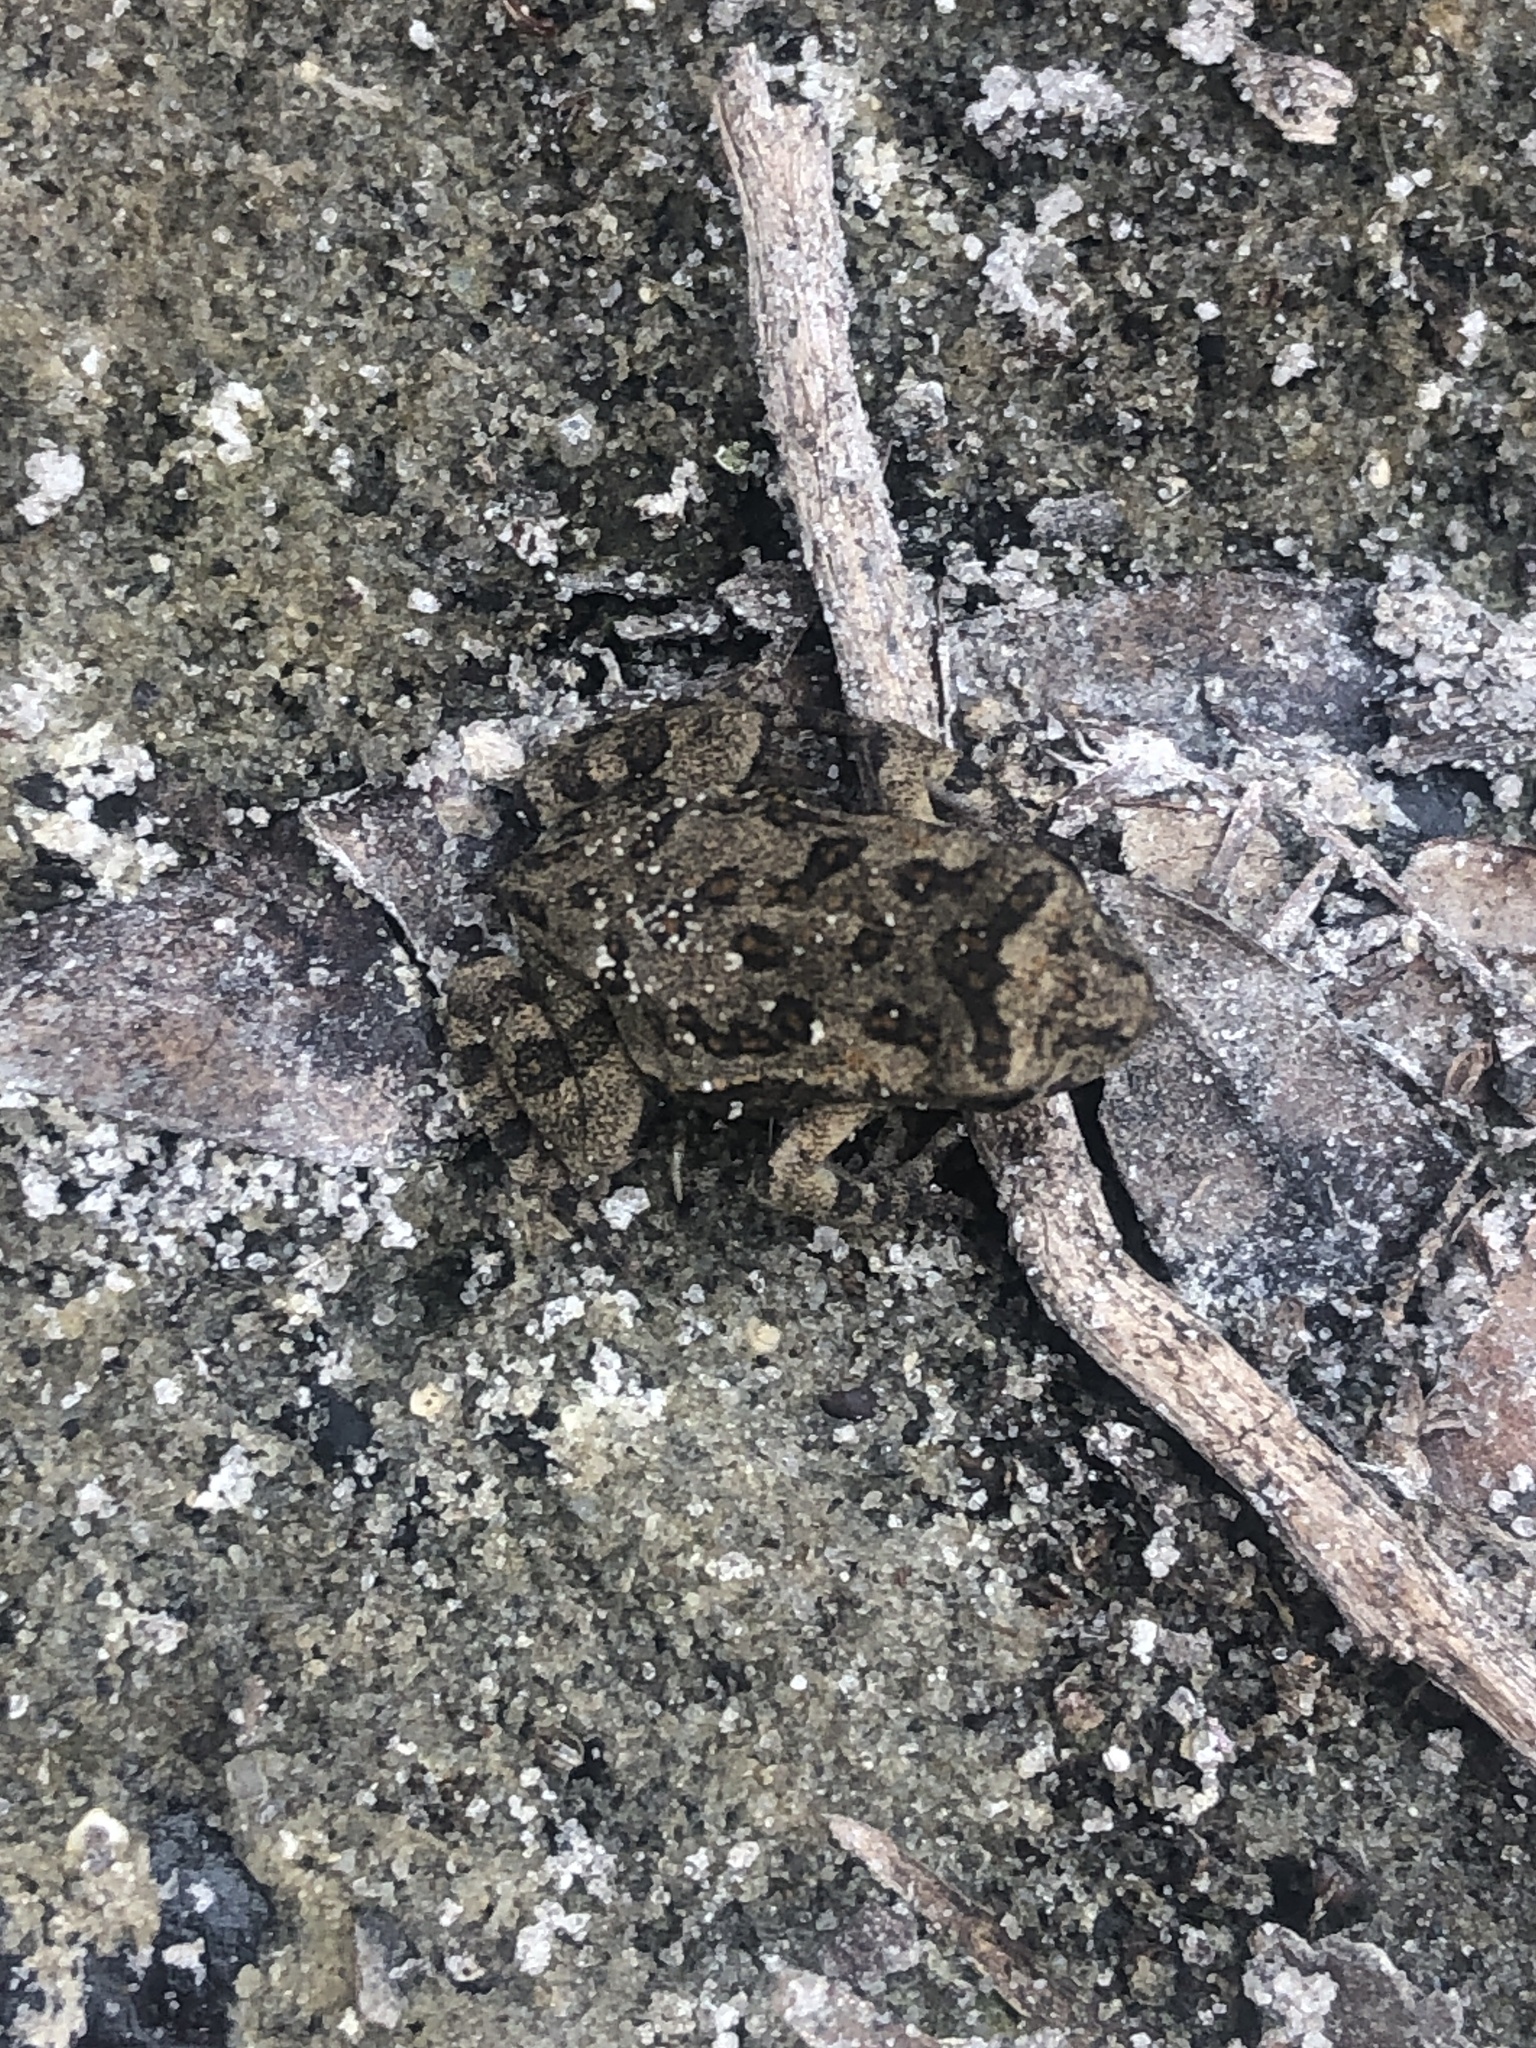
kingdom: Animalia
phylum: Chordata
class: Amphibia
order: Anura
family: Bufonidae
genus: Rhinella
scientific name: Rhinella marina
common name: Cane toad
